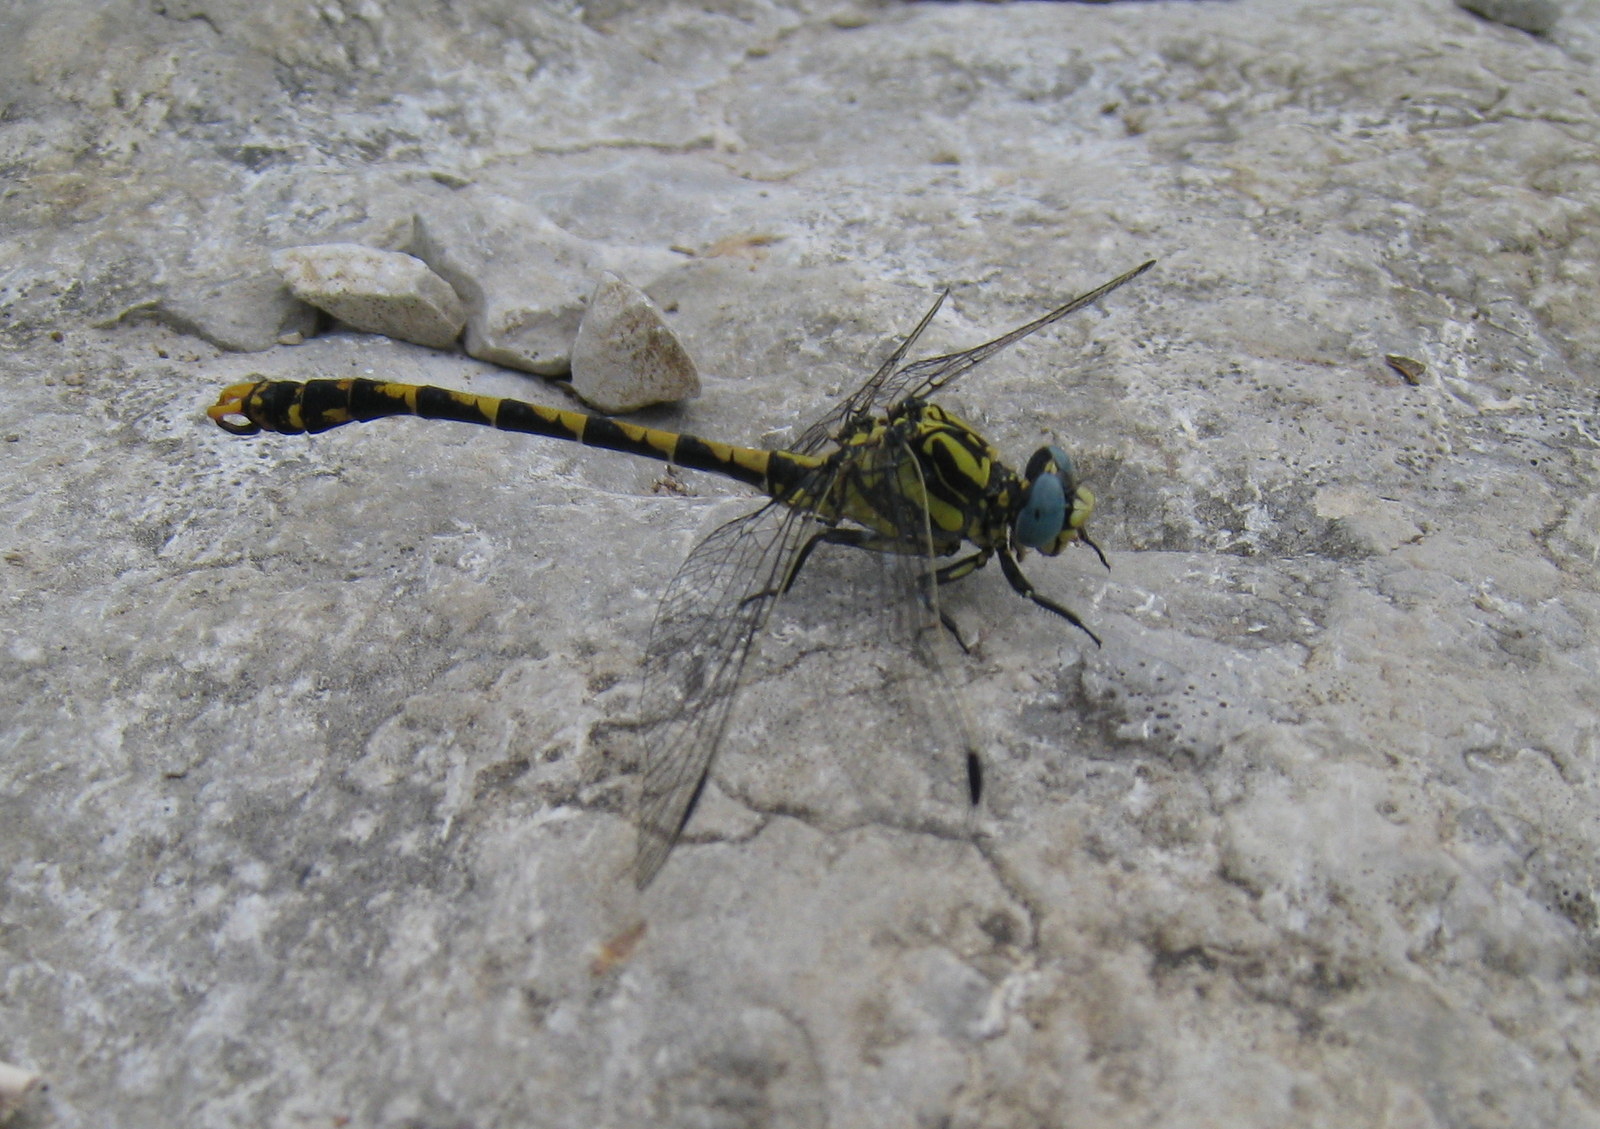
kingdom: Animalia
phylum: Arthropoda
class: Insecta
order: Odonata
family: Gomphidae
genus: Onychogomphus
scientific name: Onychogomphus uncatus
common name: Large pincertail
